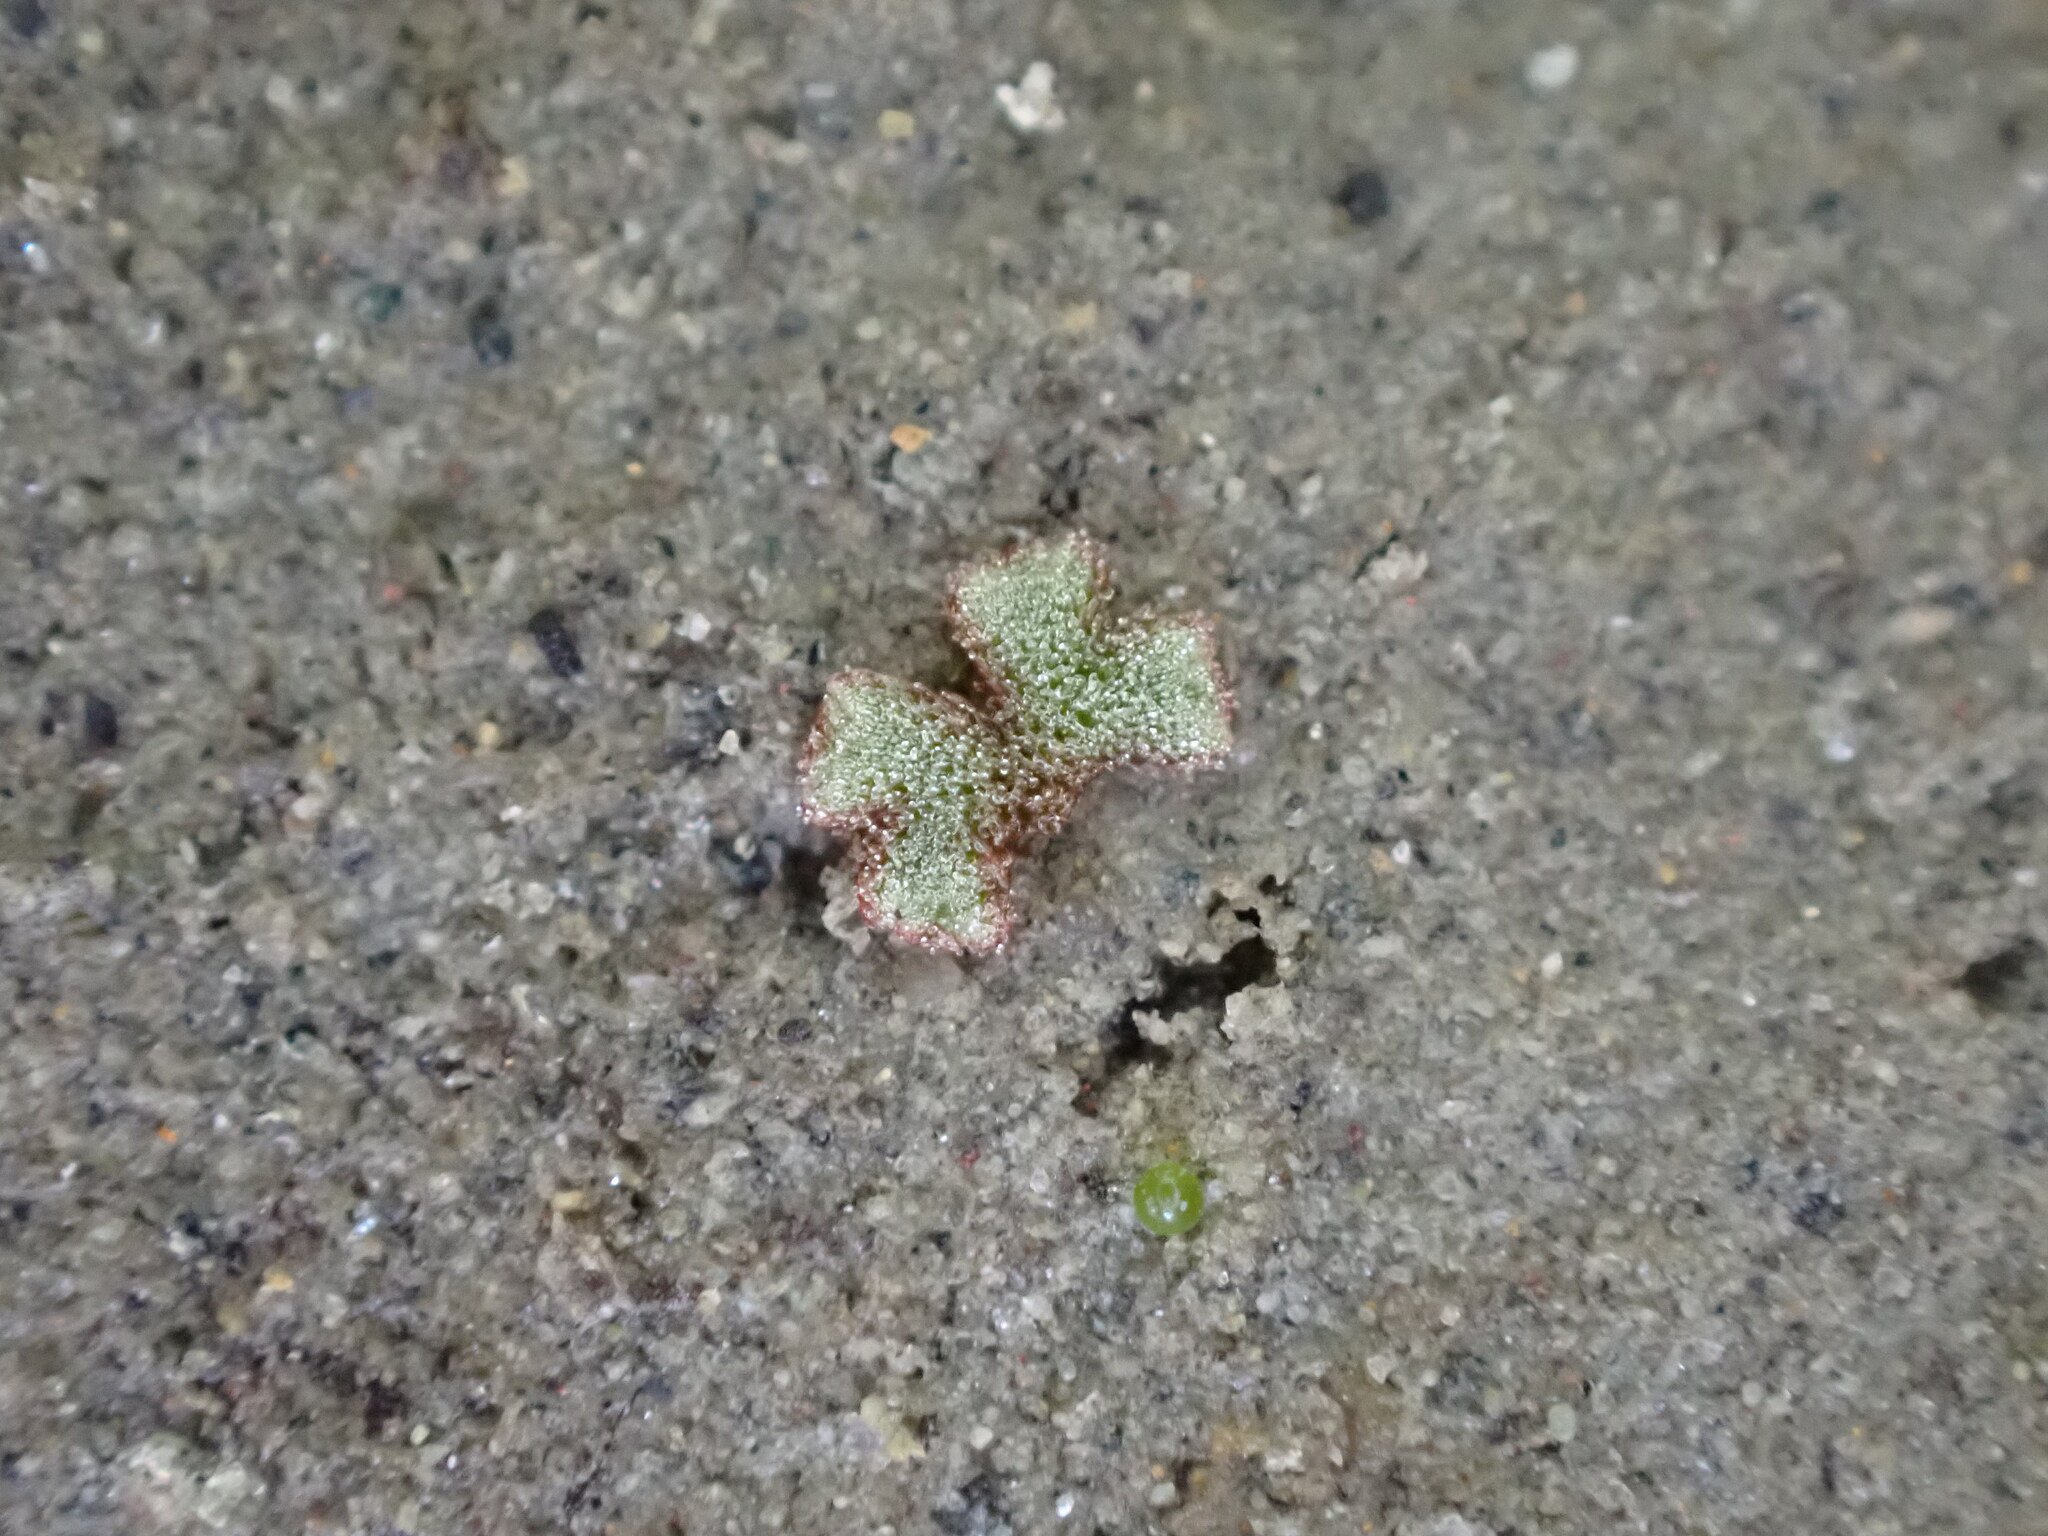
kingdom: Plantae
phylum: Marchantiophyta
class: Marchantiopsida
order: Marchantiales
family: Ricciaceae
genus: Riccia
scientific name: Riccia frostii
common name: Frost s crystalwort
